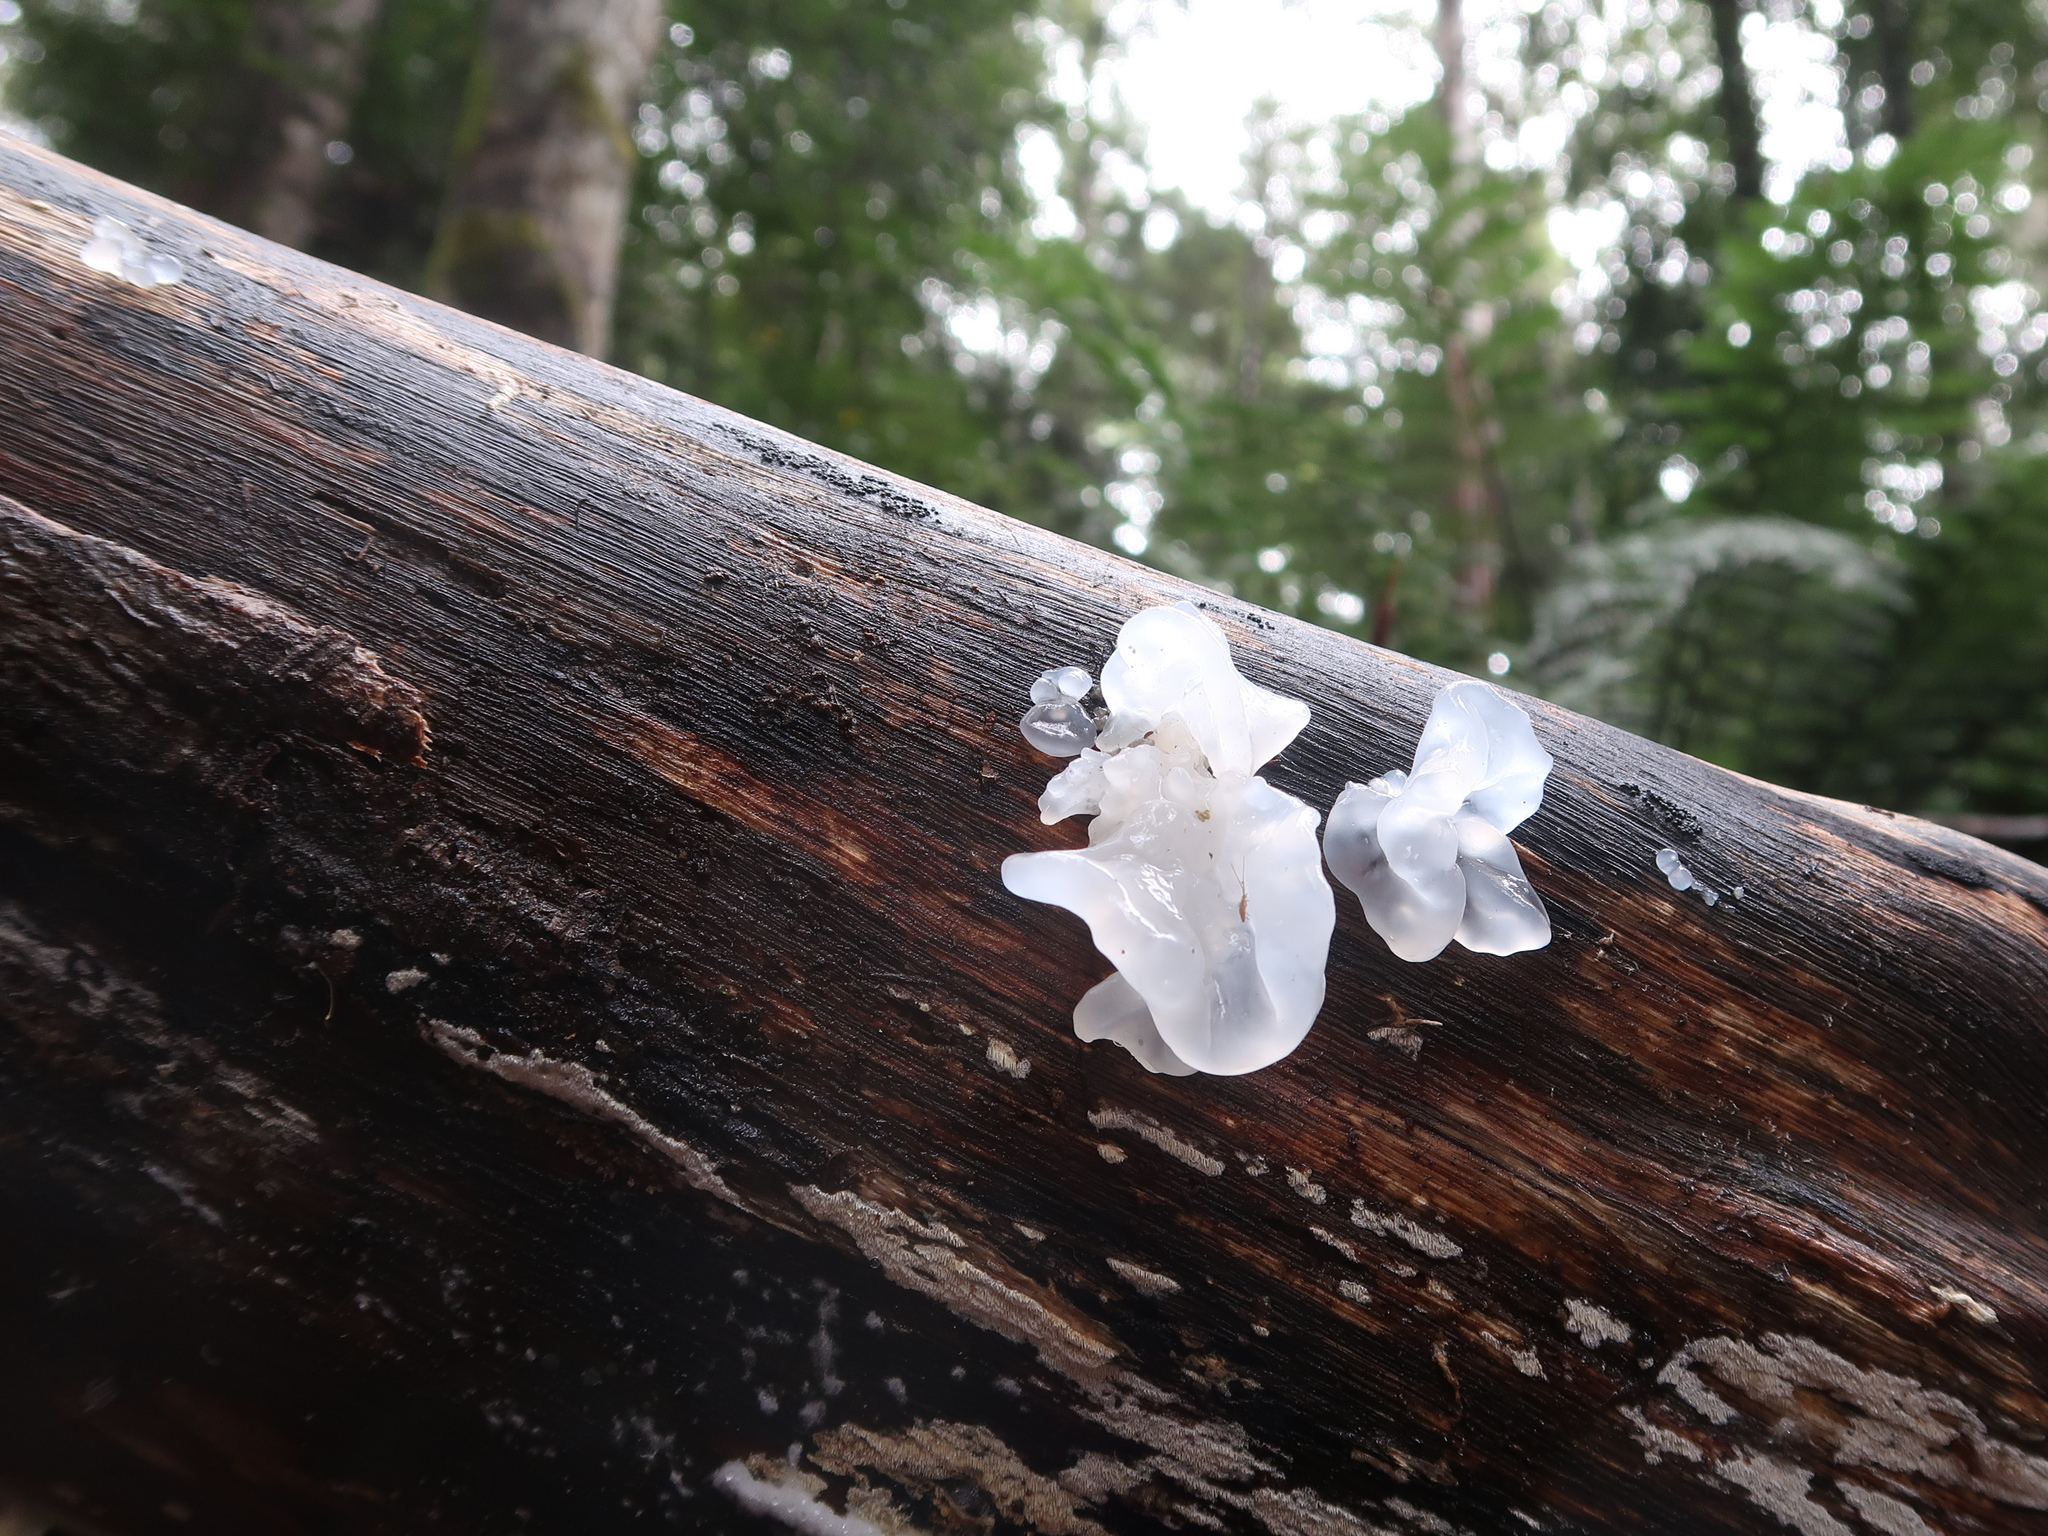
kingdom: Fungi
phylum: Basidiomycota
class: Tremellomycetes
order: Tremellales
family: Tremellaceae
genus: Tremella
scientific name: Tremella fuciformis
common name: Snow fungus
